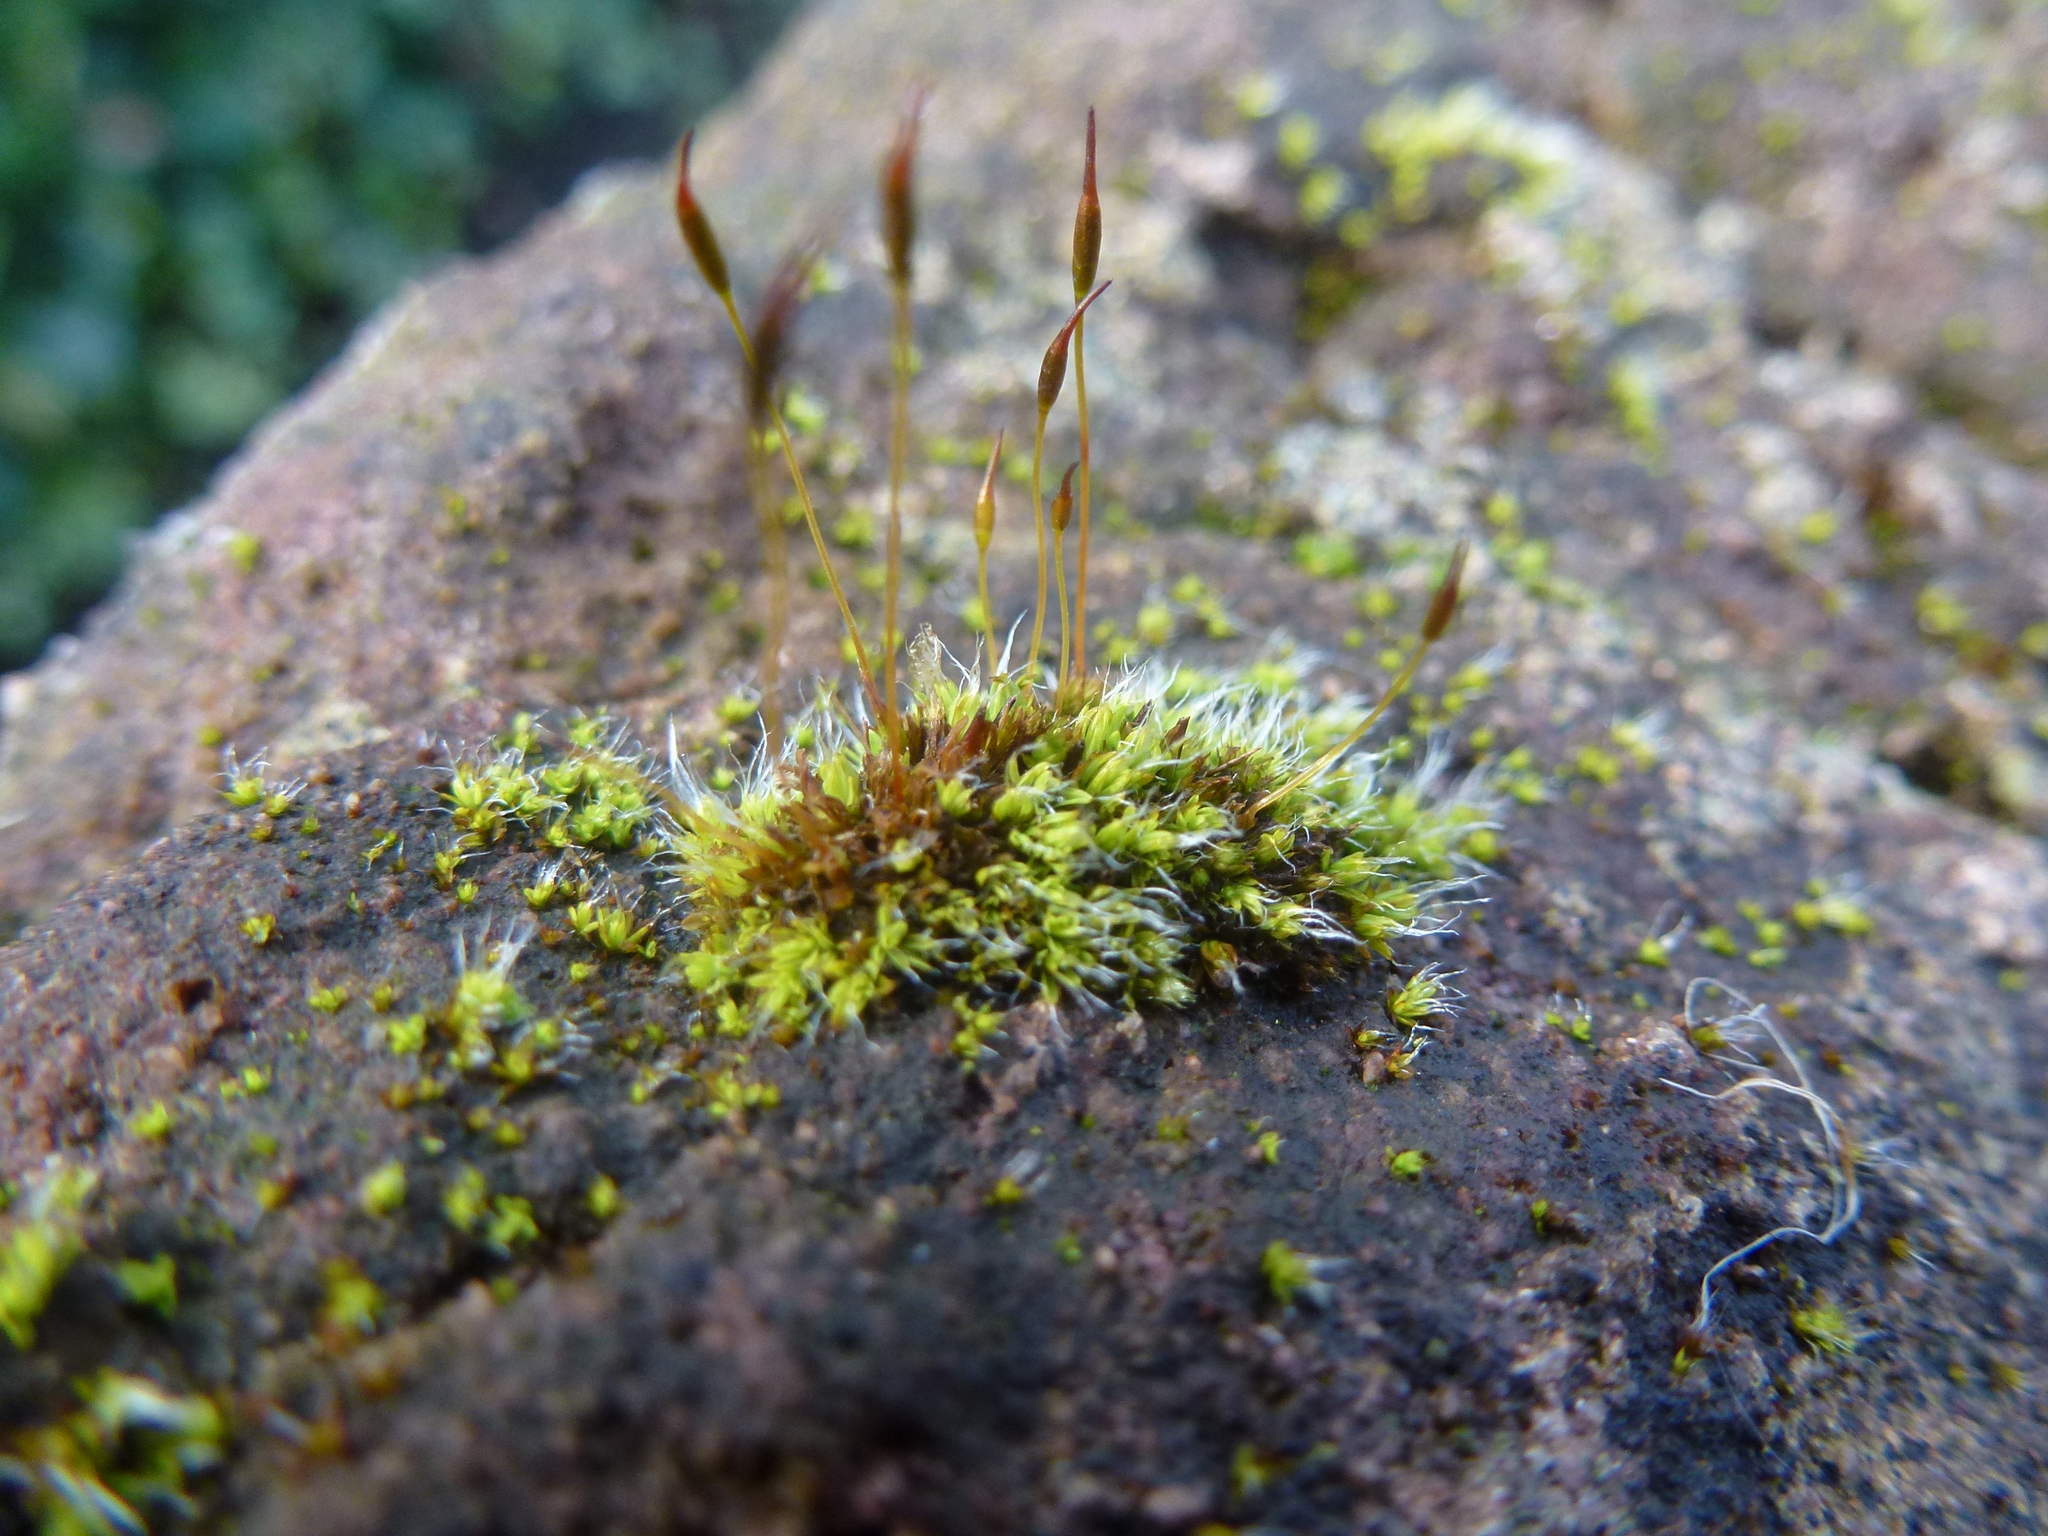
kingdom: Plantae
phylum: Bryophyta
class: Bryopsida
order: Pottiales
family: Pottiaceae
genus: Tortula
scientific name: Tortula muralis
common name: Wall screw-moss
